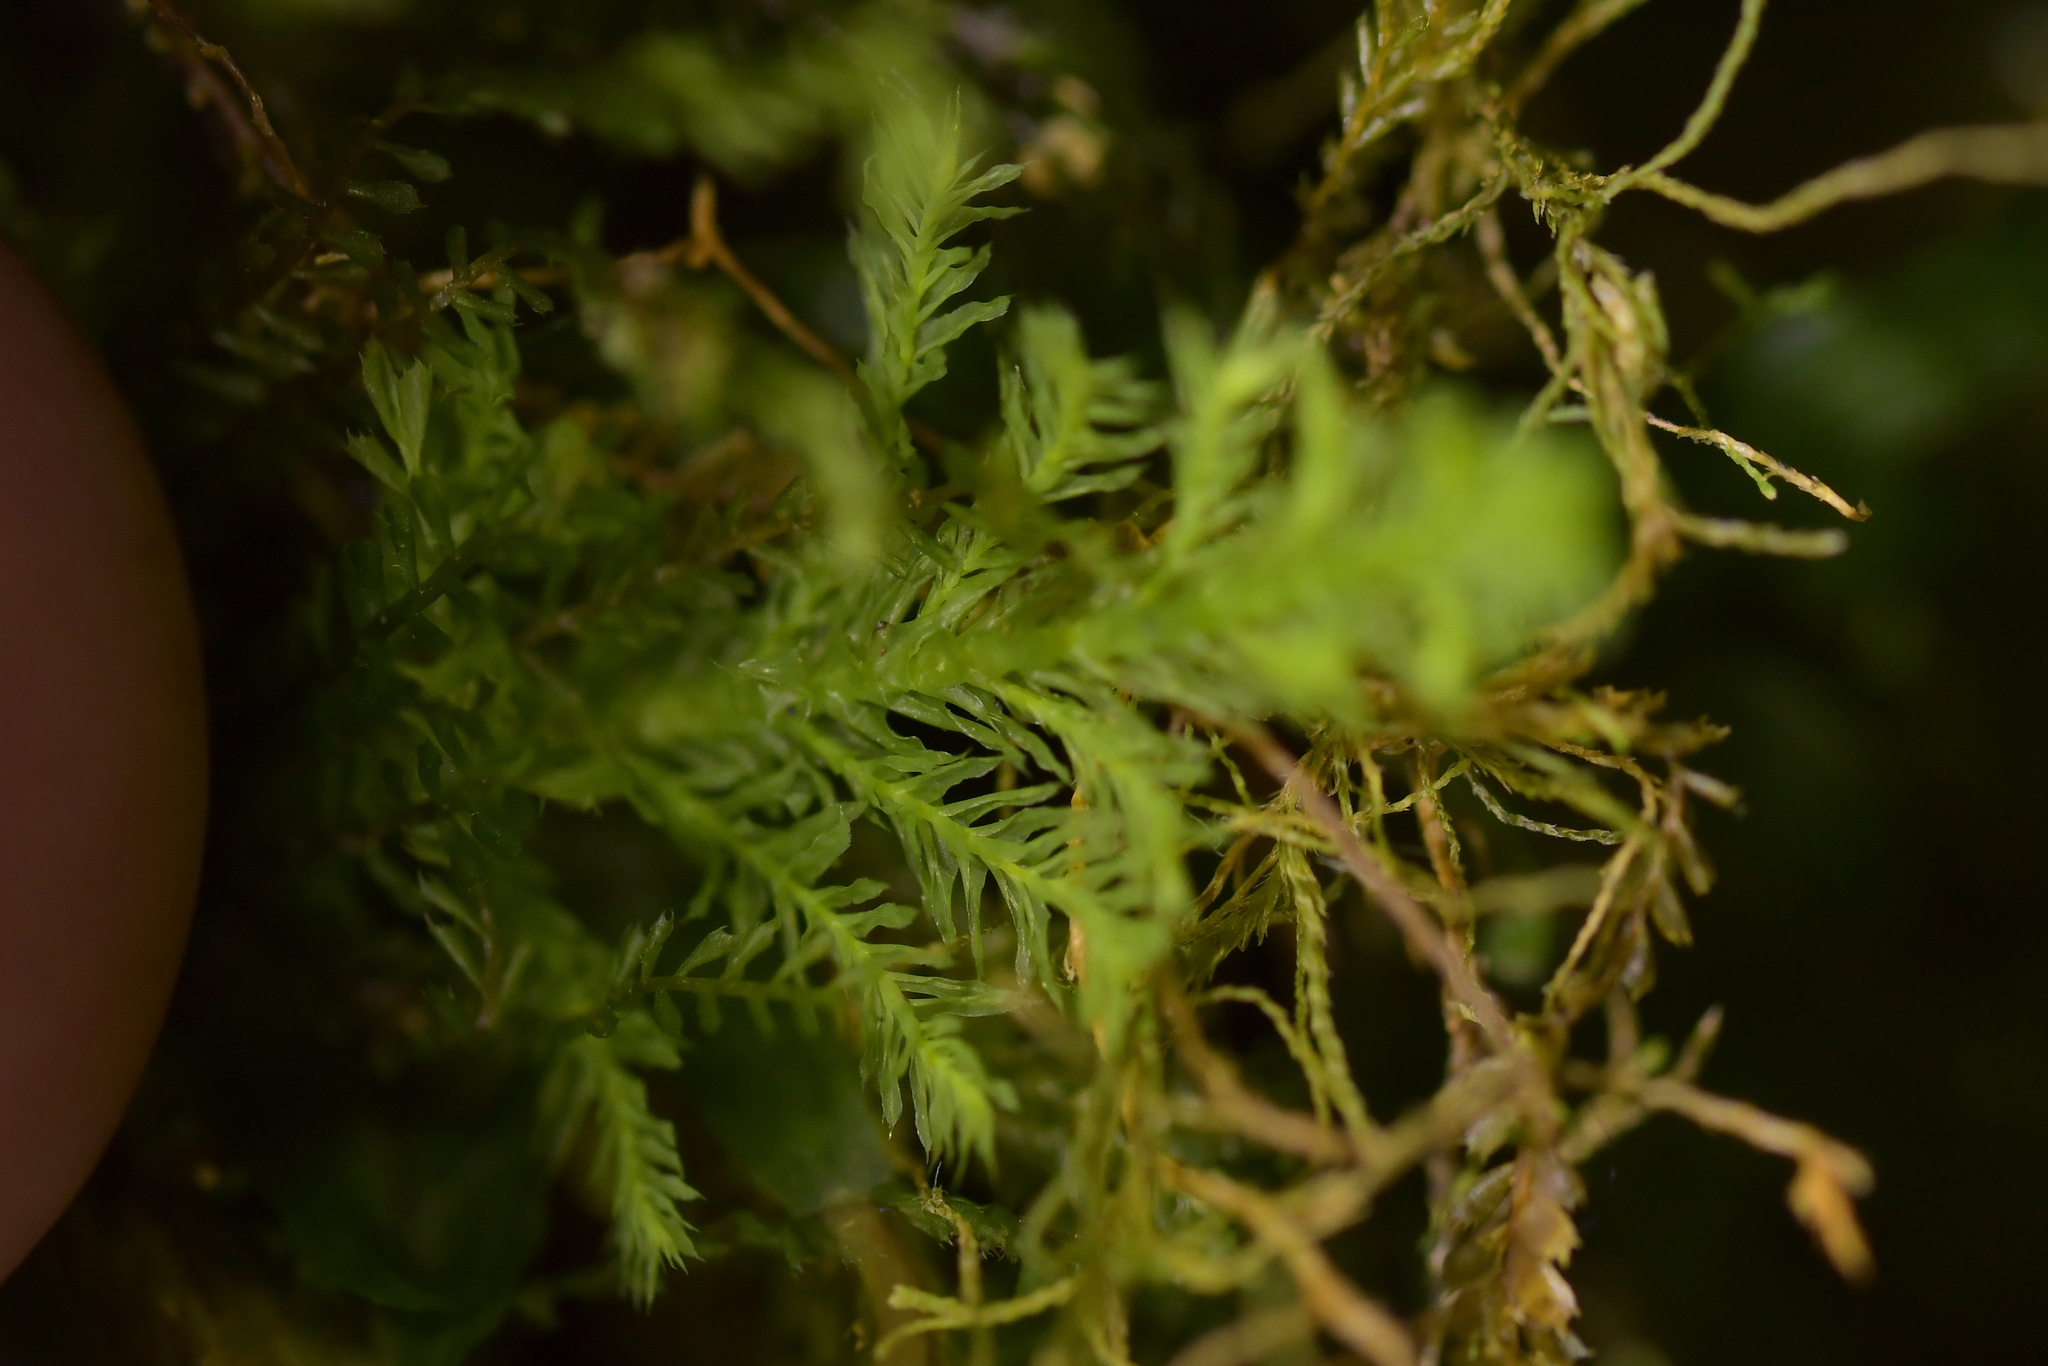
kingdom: Plantae
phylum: Bryophyta
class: Bryopsida
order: Hypopterygiales
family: Hypopterygiaceae
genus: Lopidium
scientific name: Lopidium concinnum
